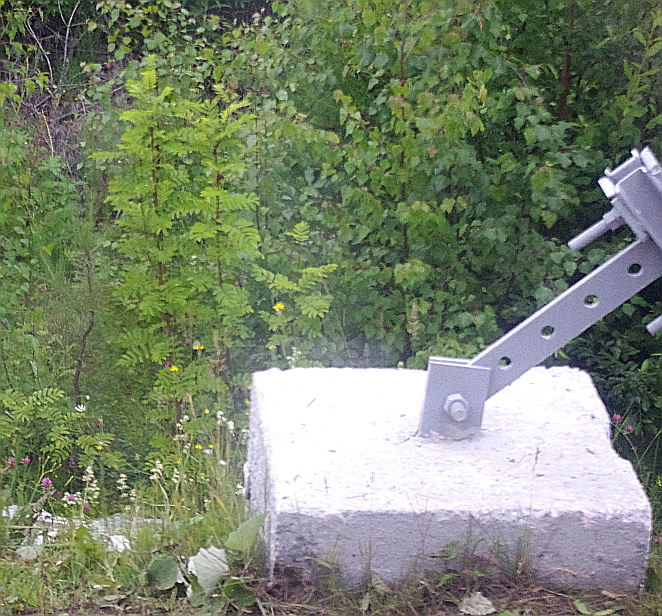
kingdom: Plantae
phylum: Tracheophyta
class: Magnoliopsida
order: Rosales
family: Rosaceae
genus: Sorbus
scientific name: Sorbus aucuparia
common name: Rowan
